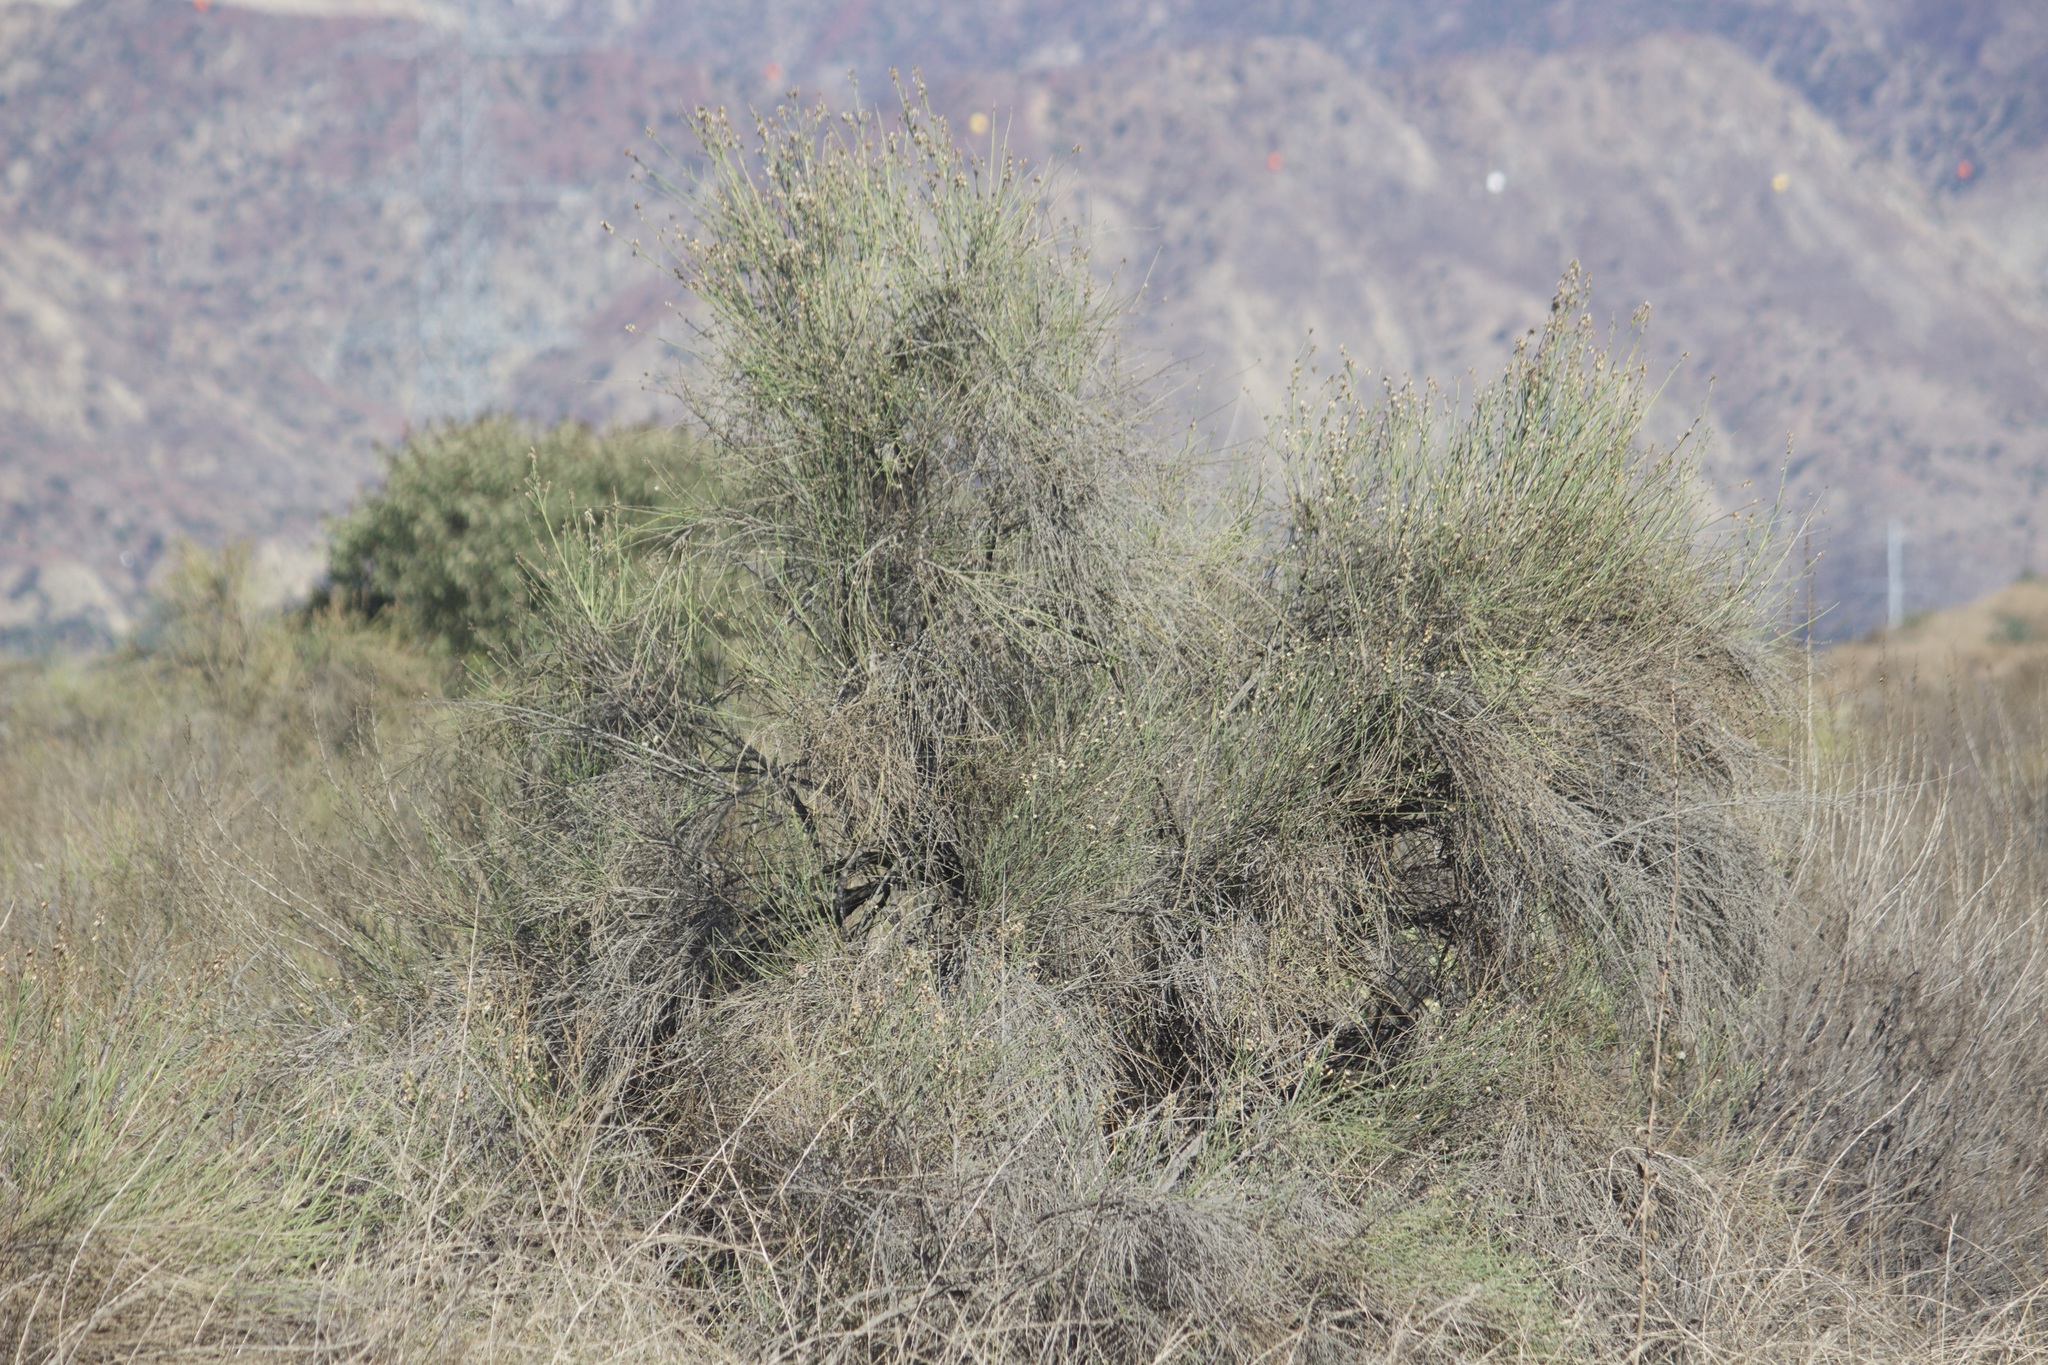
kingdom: Plantae
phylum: Tracheophyta
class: Magnoliopsida
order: Asterales
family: Asteraceae
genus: Lepidospartum
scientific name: Lepidospartum squamatum
